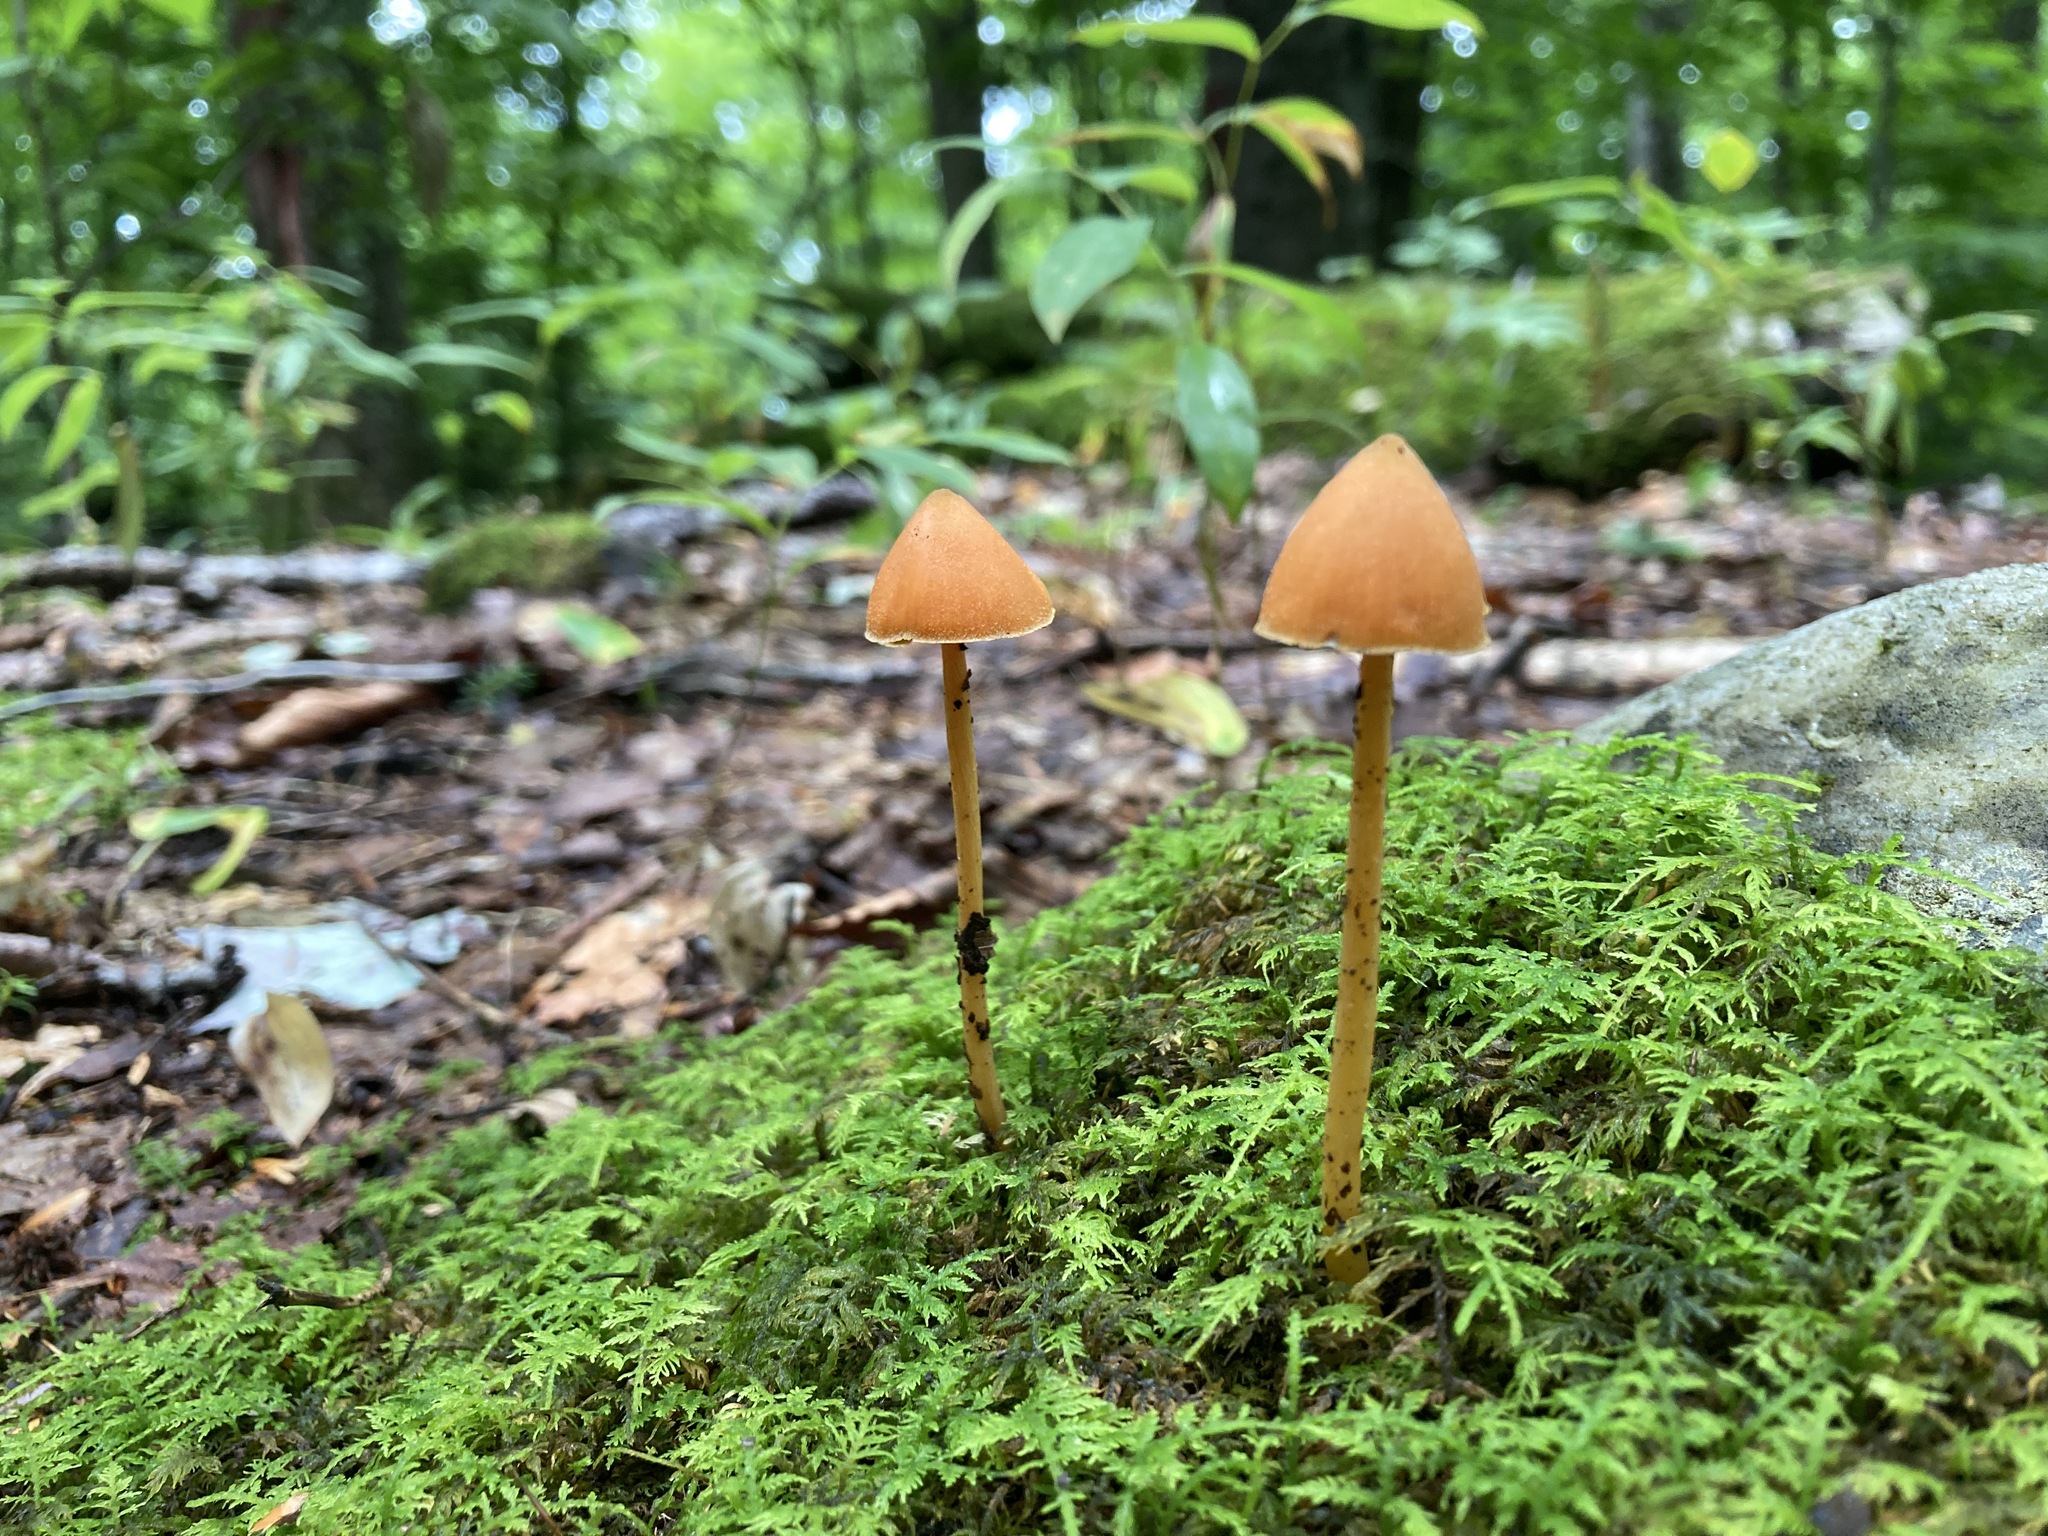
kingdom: Fungi
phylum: Basidiomycota
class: Agaricomycetes
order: Agaricales
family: Entolomataceae
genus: Entoloma
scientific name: Entoloma quadratum
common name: Salmon pinkgill
